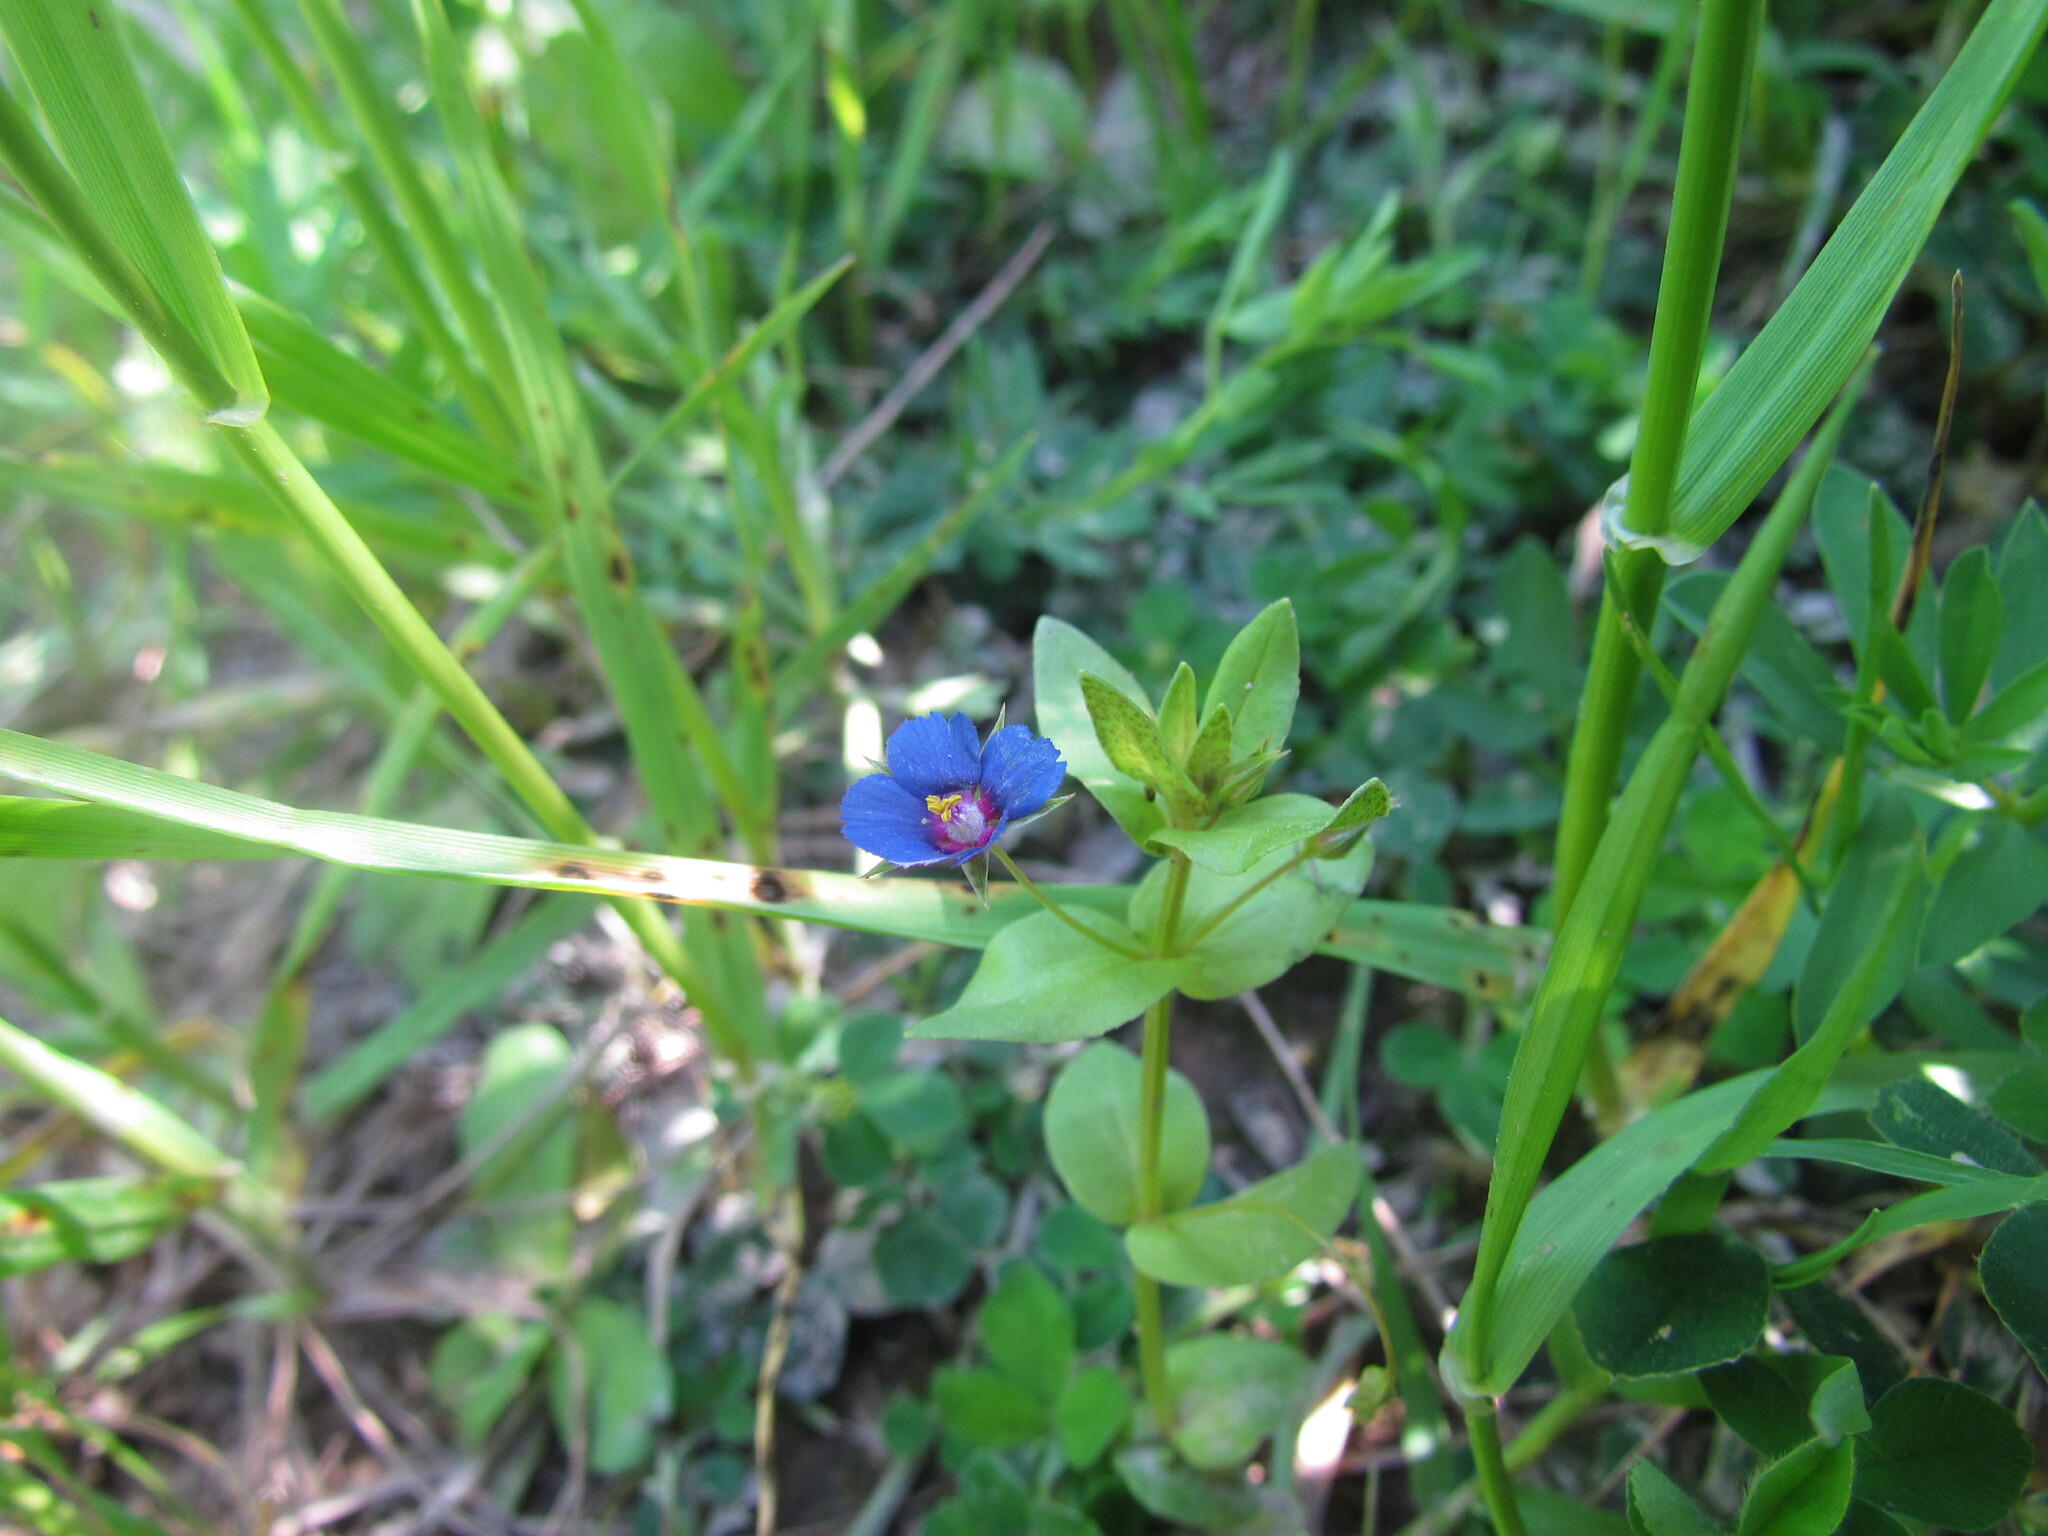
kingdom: Plantae
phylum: Tracheophyta
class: Magnoliopsida
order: Ericales
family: Primulaceae
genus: Lysimachia
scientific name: Lysimachia arvensis
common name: Scarlet pimpernel
